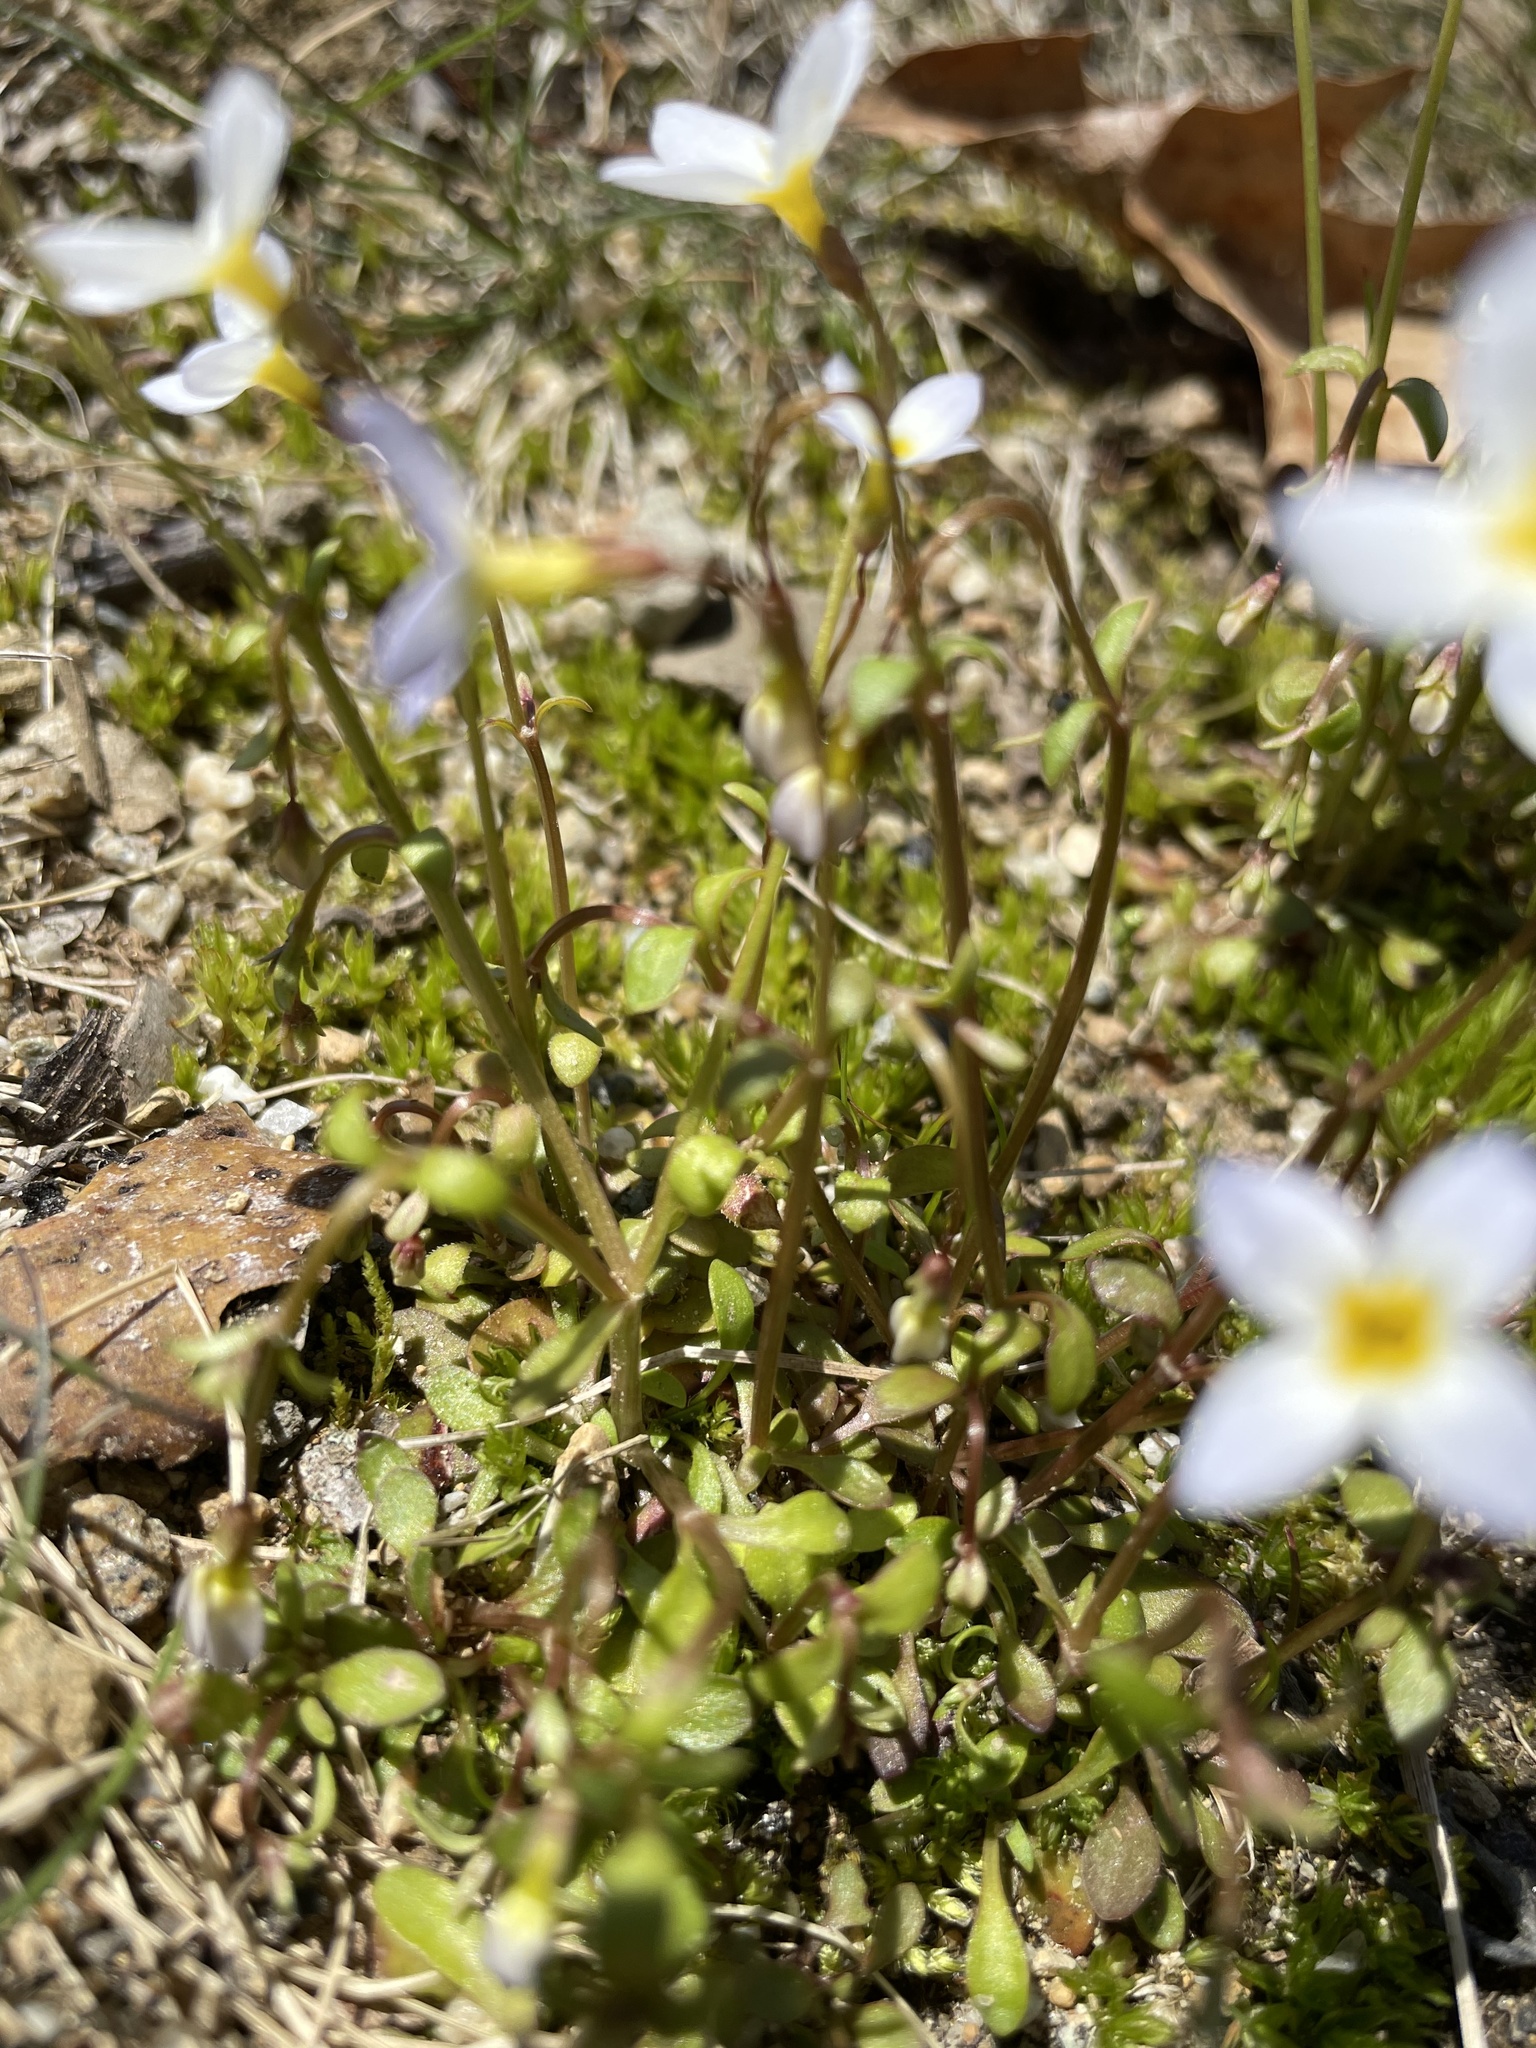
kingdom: Plantae
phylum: Tracheophyta
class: Magnoliopsida
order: Gentianales
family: Rubiaceae
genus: Houstonia
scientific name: Houstonia caerulea
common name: Bluets
